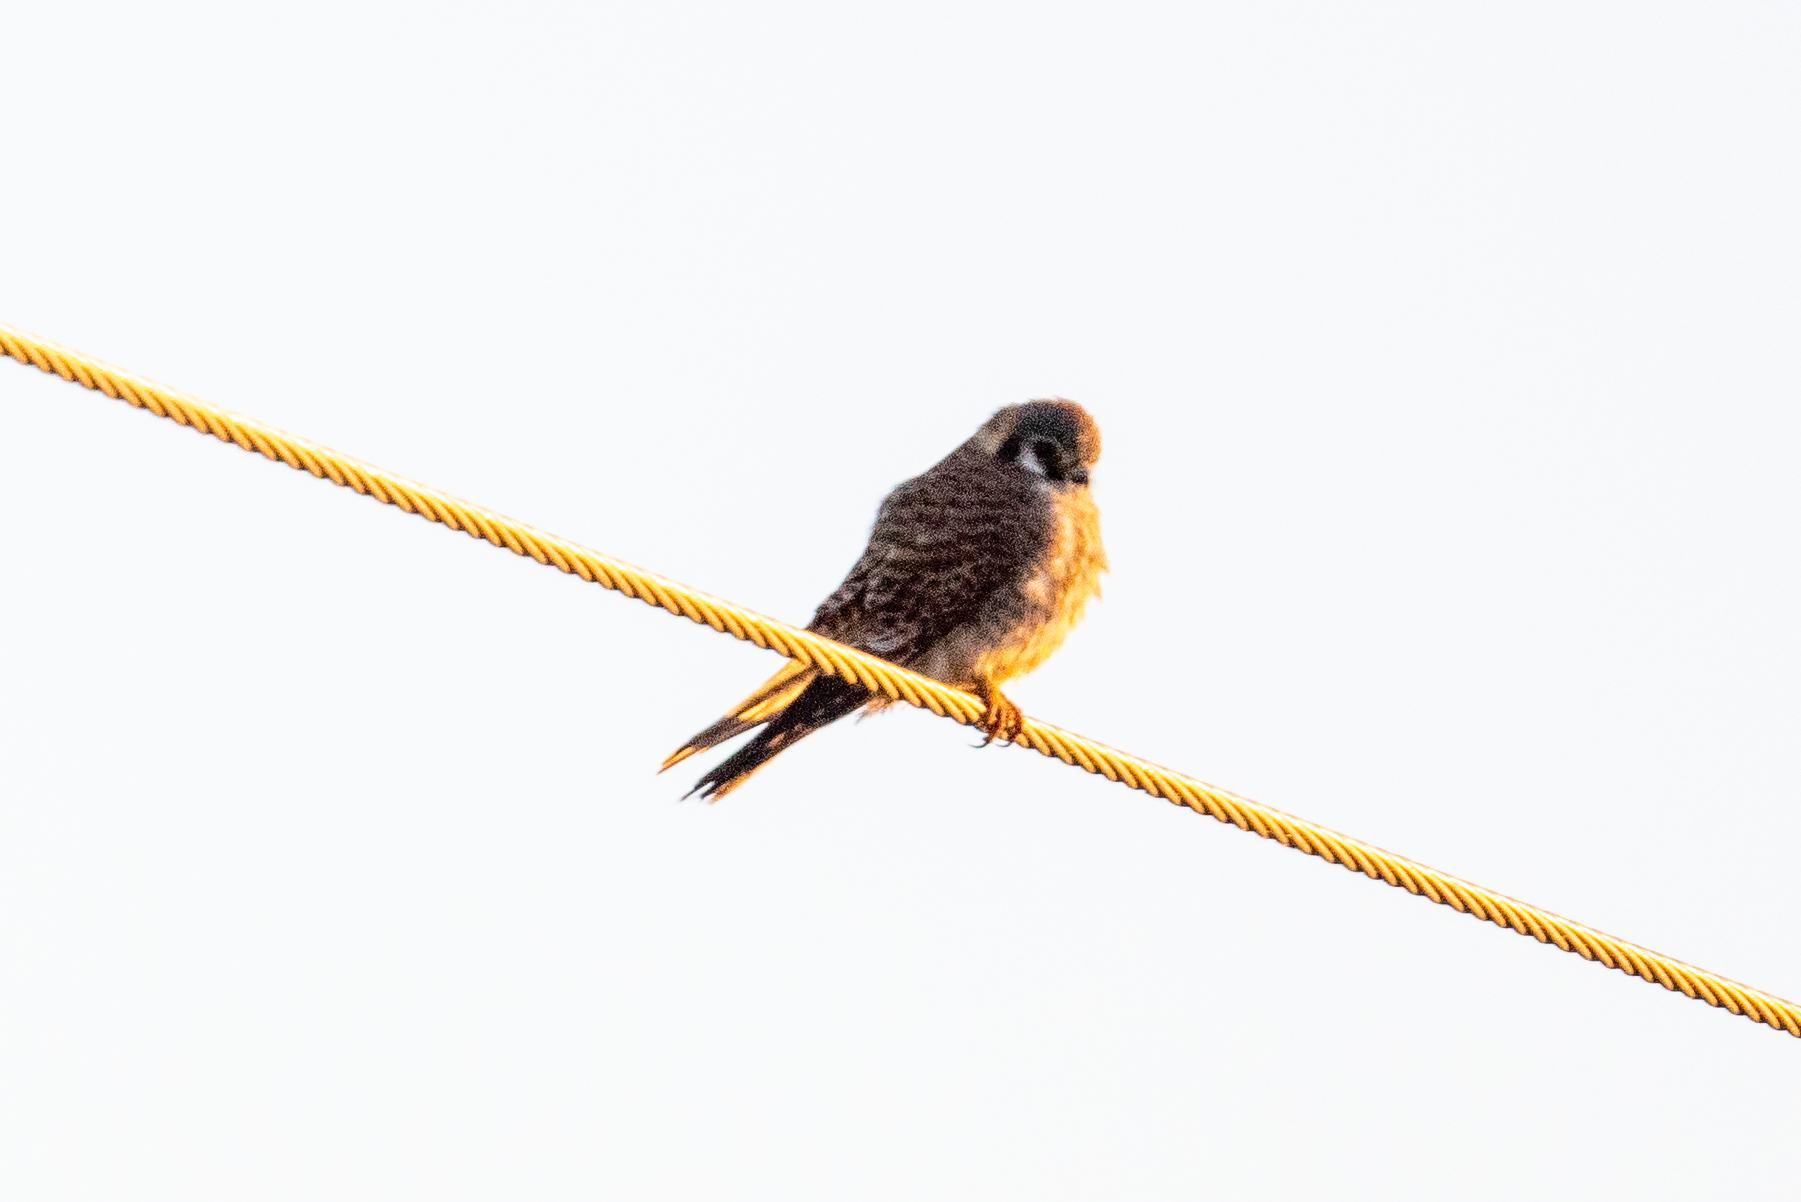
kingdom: Animalia
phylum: Chordata
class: Aves
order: Falconiformes
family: Falconidae
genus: Falco
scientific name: Falco sparverius
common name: American kestrel
